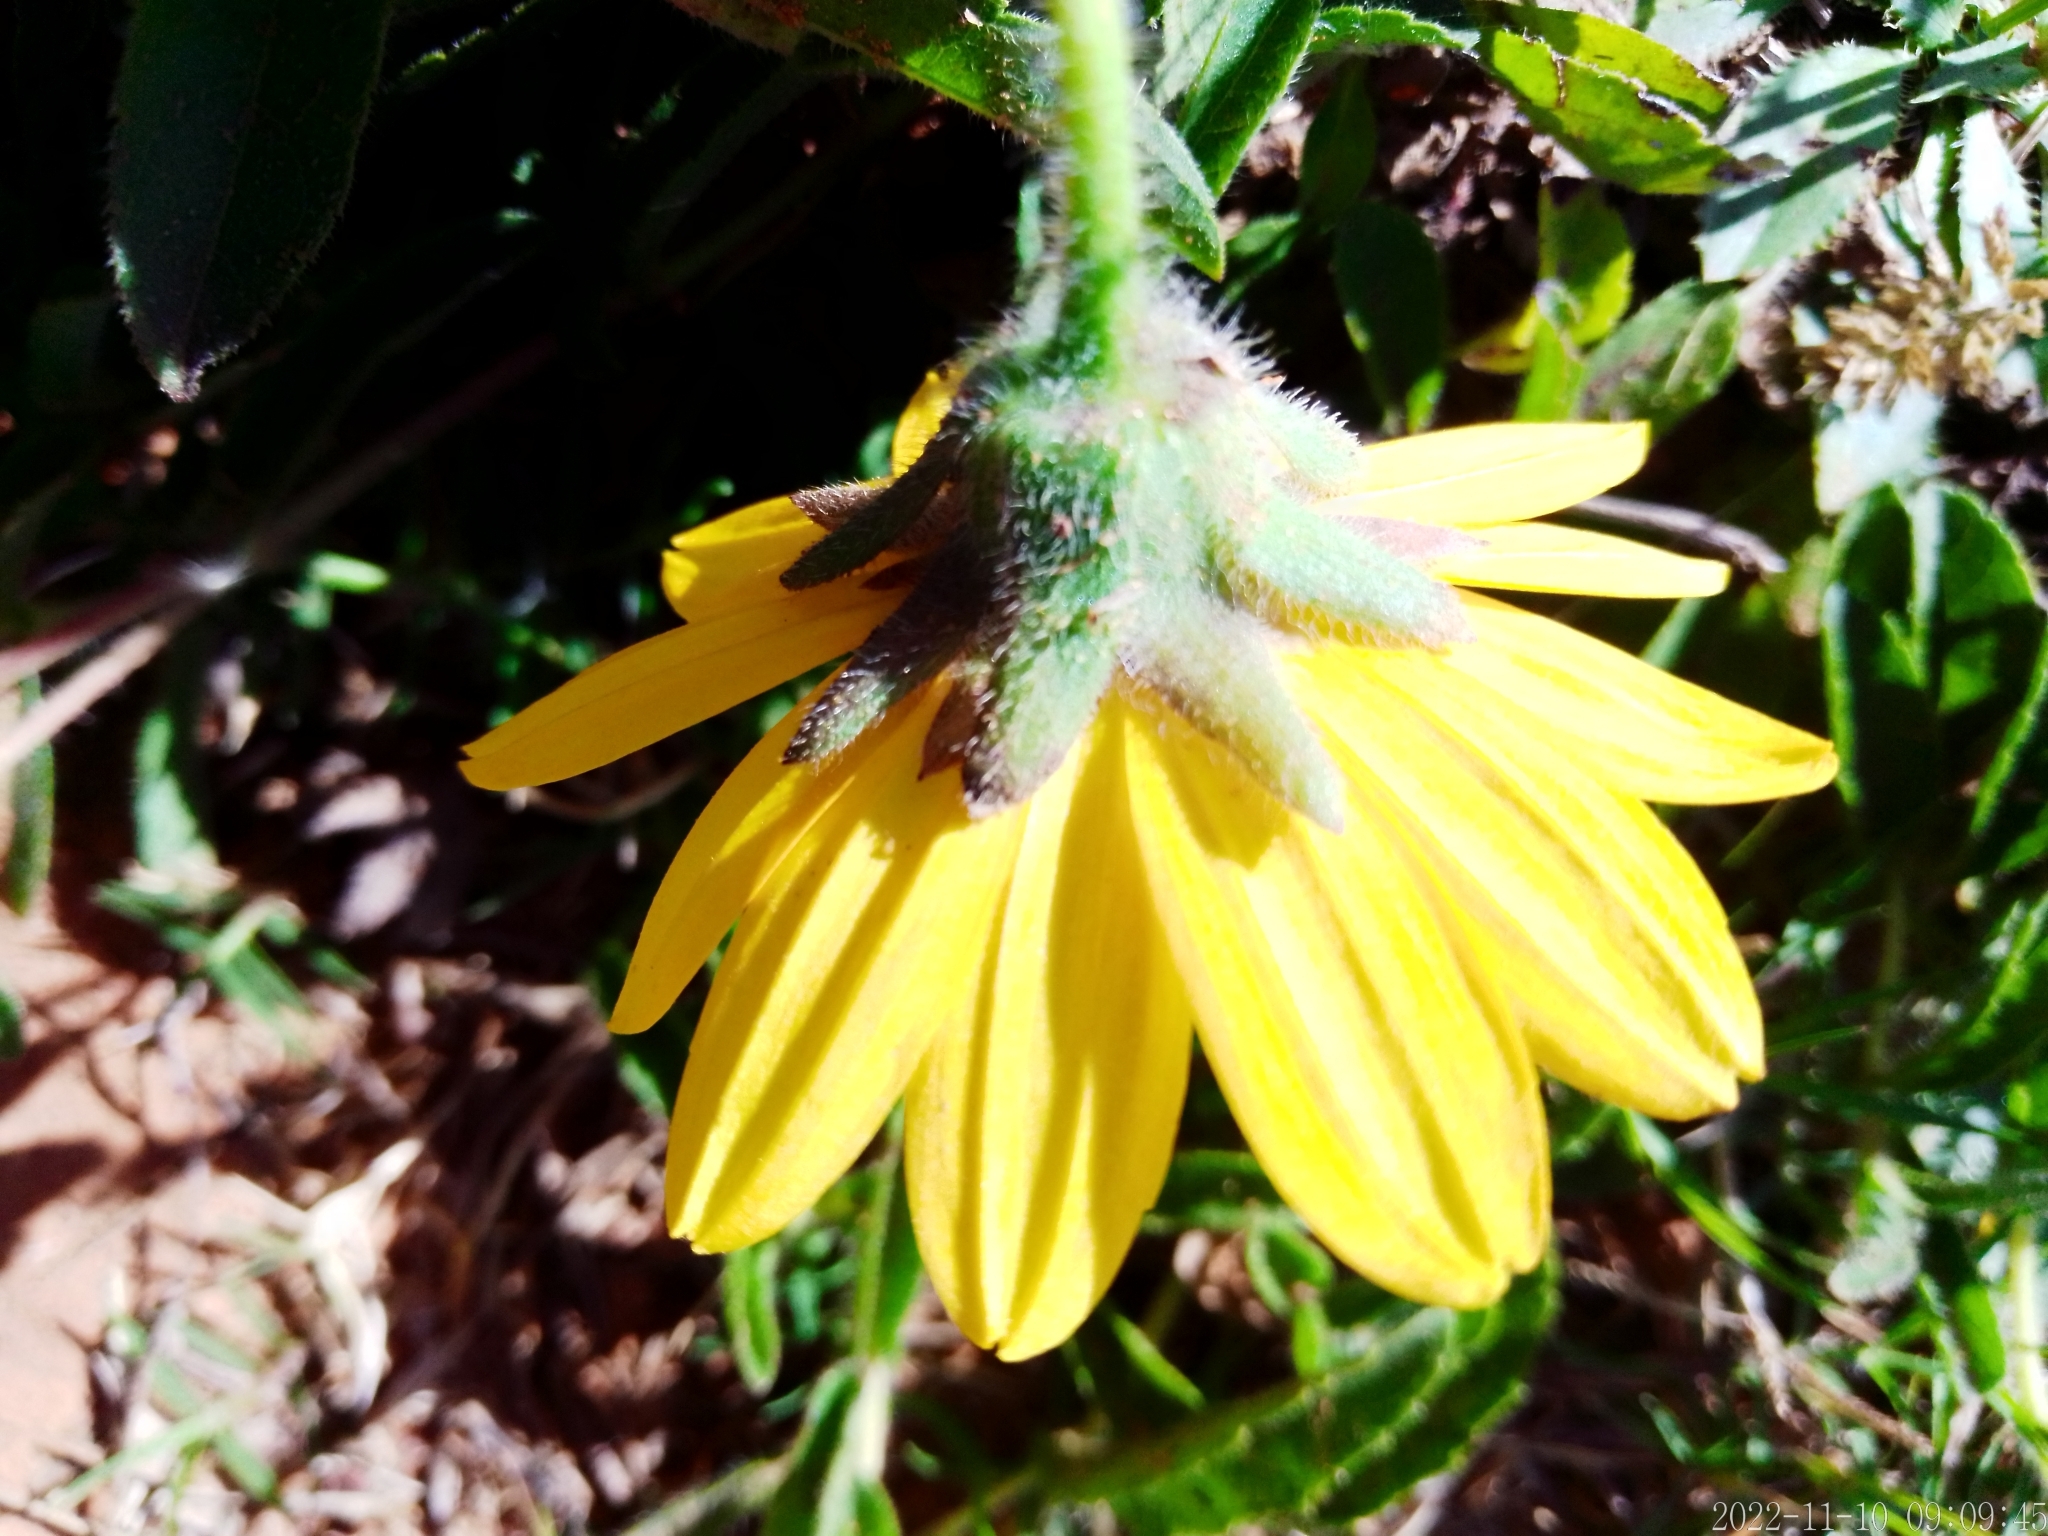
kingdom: Plantae
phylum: Tracheophyta
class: Magnoliopsida
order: Asterales
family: Asteraceae
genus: Wedelia
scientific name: Wedelia montevidensis
